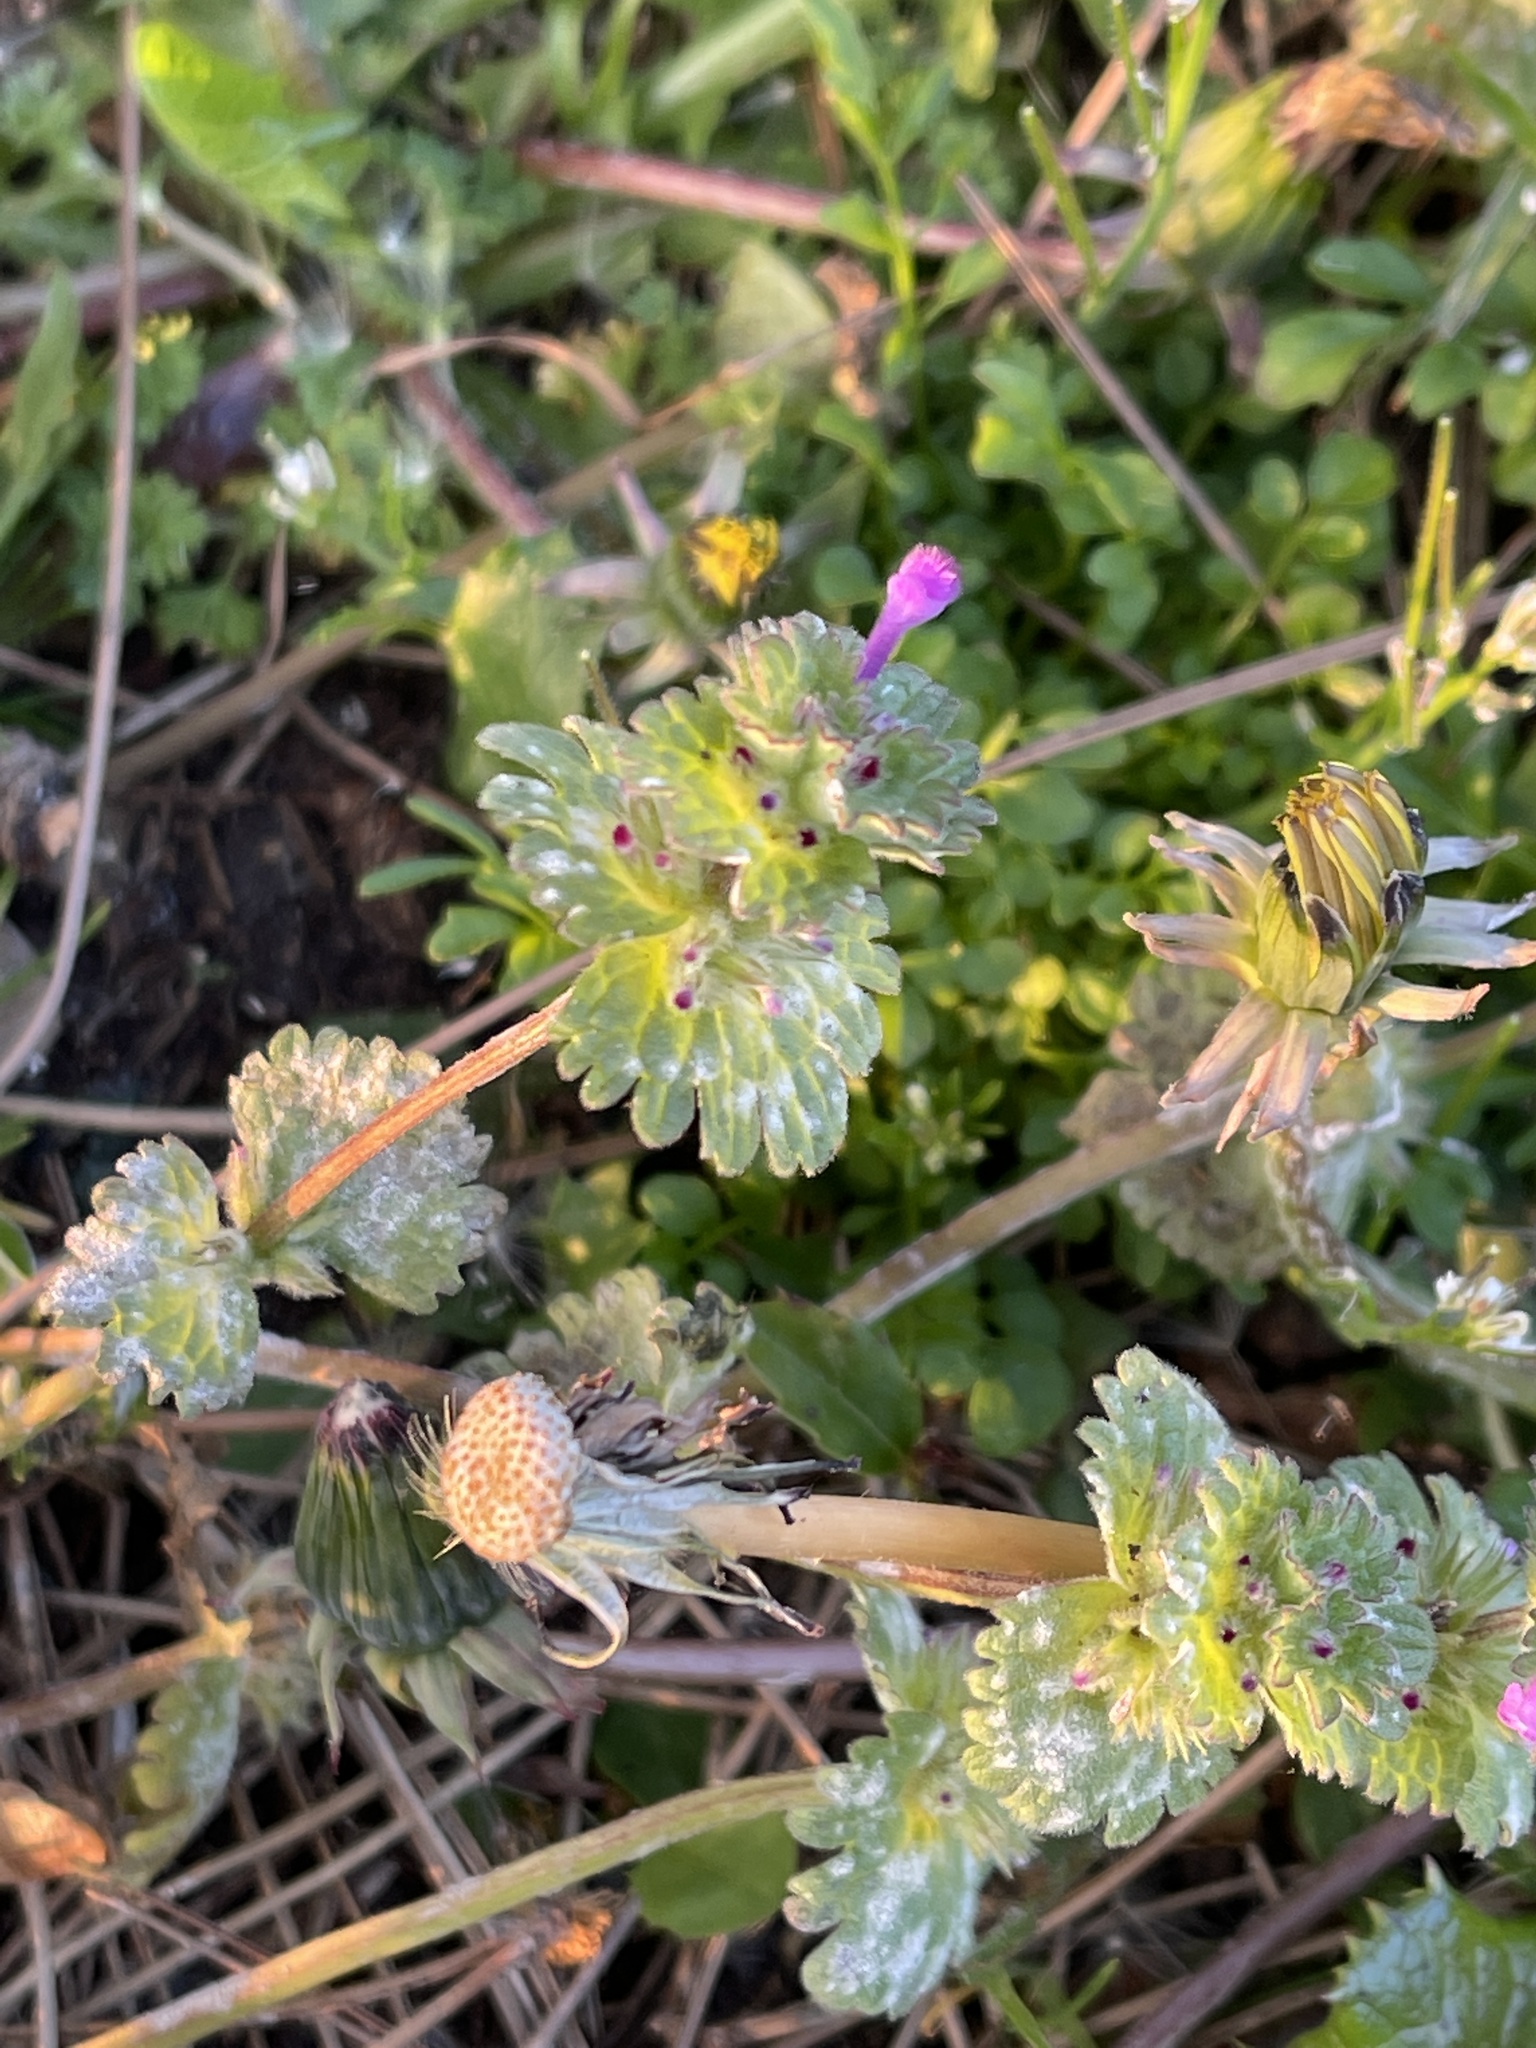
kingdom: Plantae
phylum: Tracheophyta
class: Magnoliopsida
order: Lamiales
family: Lamiaceae
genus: Lamium
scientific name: Lamium amplexicaule
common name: Henbit dead-nettle
